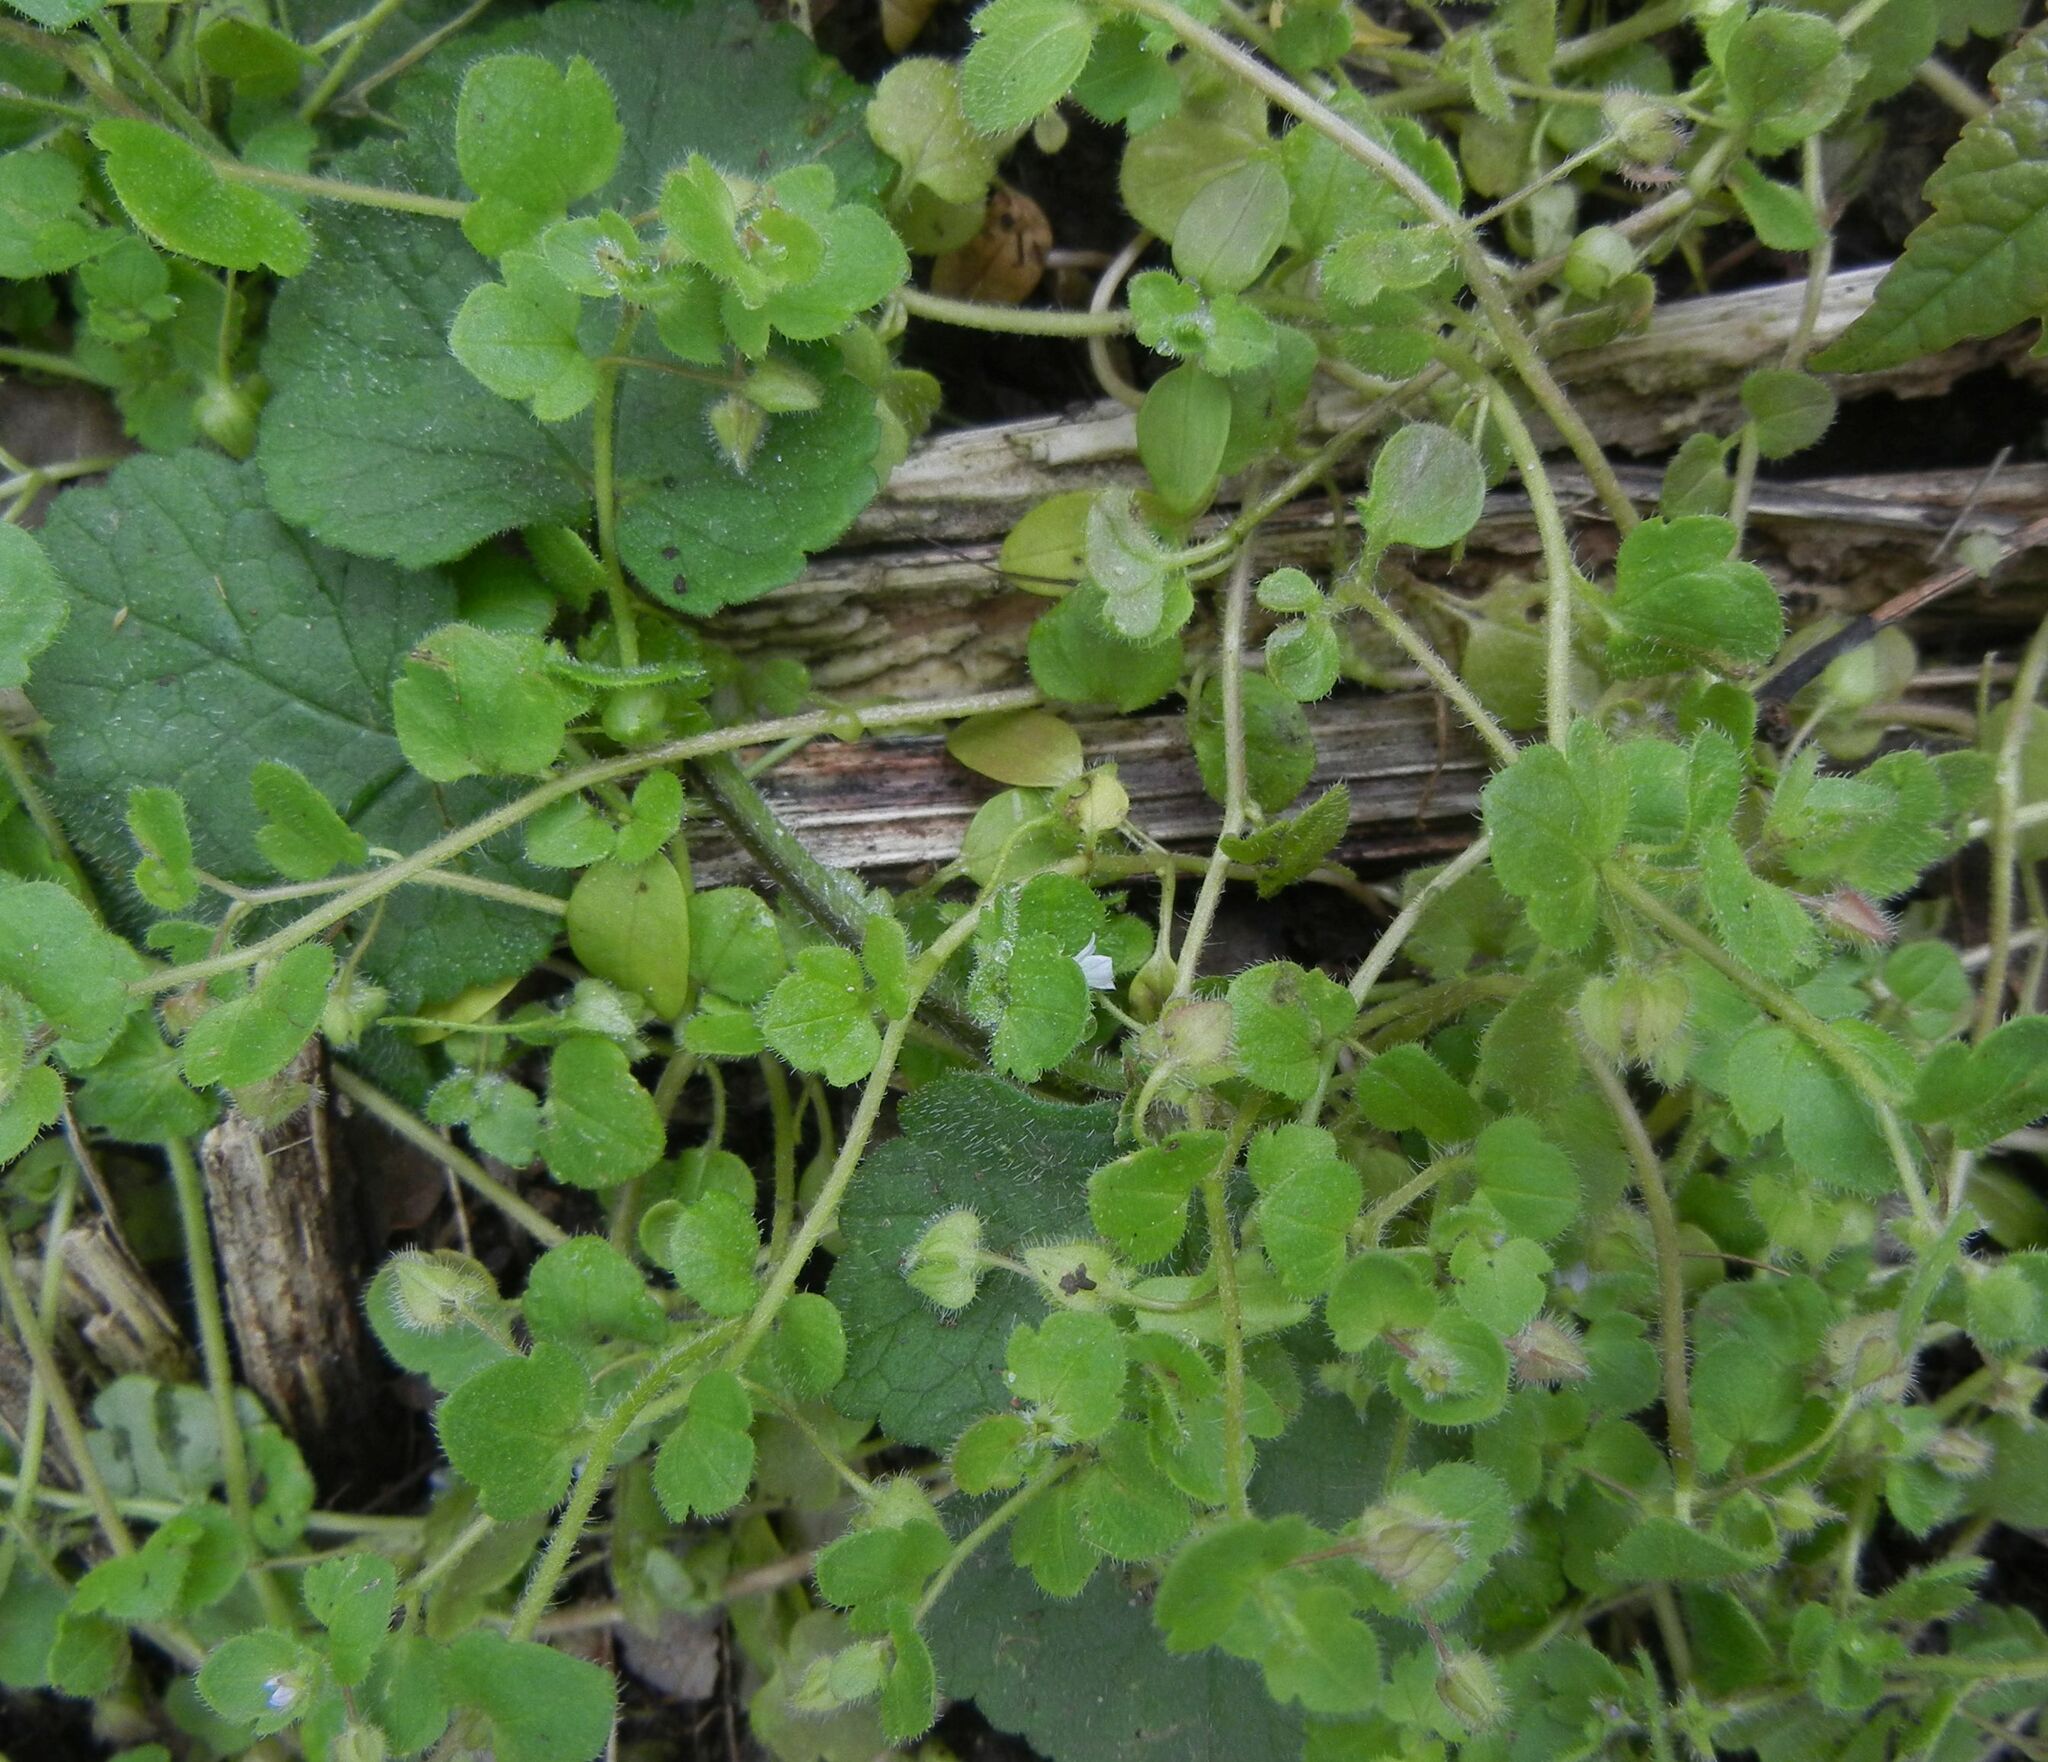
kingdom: Plantae
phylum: Tracheophyta
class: Magnoliopsida
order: Lamiales
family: Plantaginaceae
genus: Veronica
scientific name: Veronica sublobata
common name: False ivy-leaved speedwell
